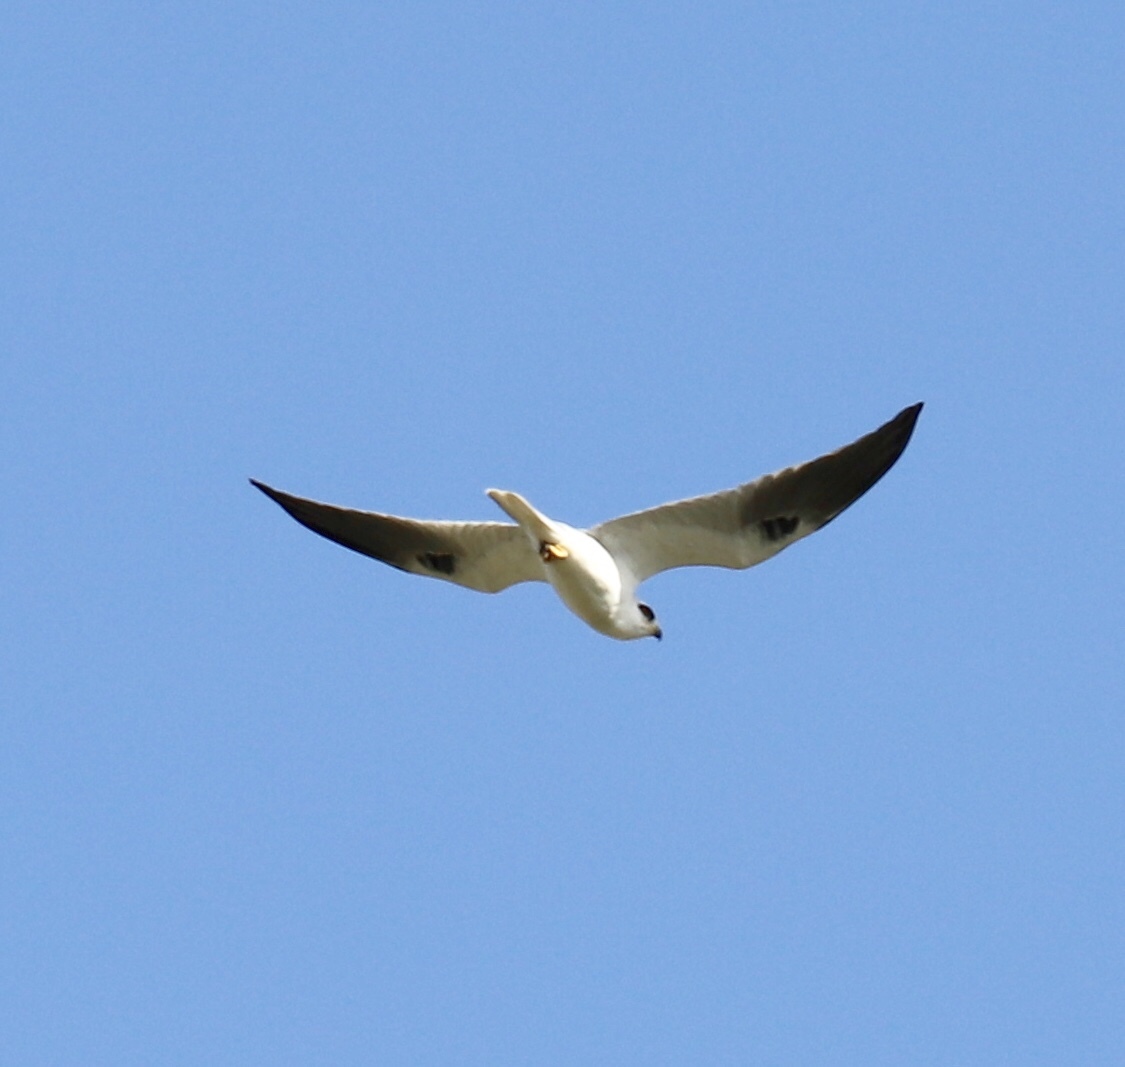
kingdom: Animalia
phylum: Chordata
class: Aves
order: Accipitriformes
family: Accipitridae
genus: Elanus
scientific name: Elanus leucurus
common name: White-tailed kite
